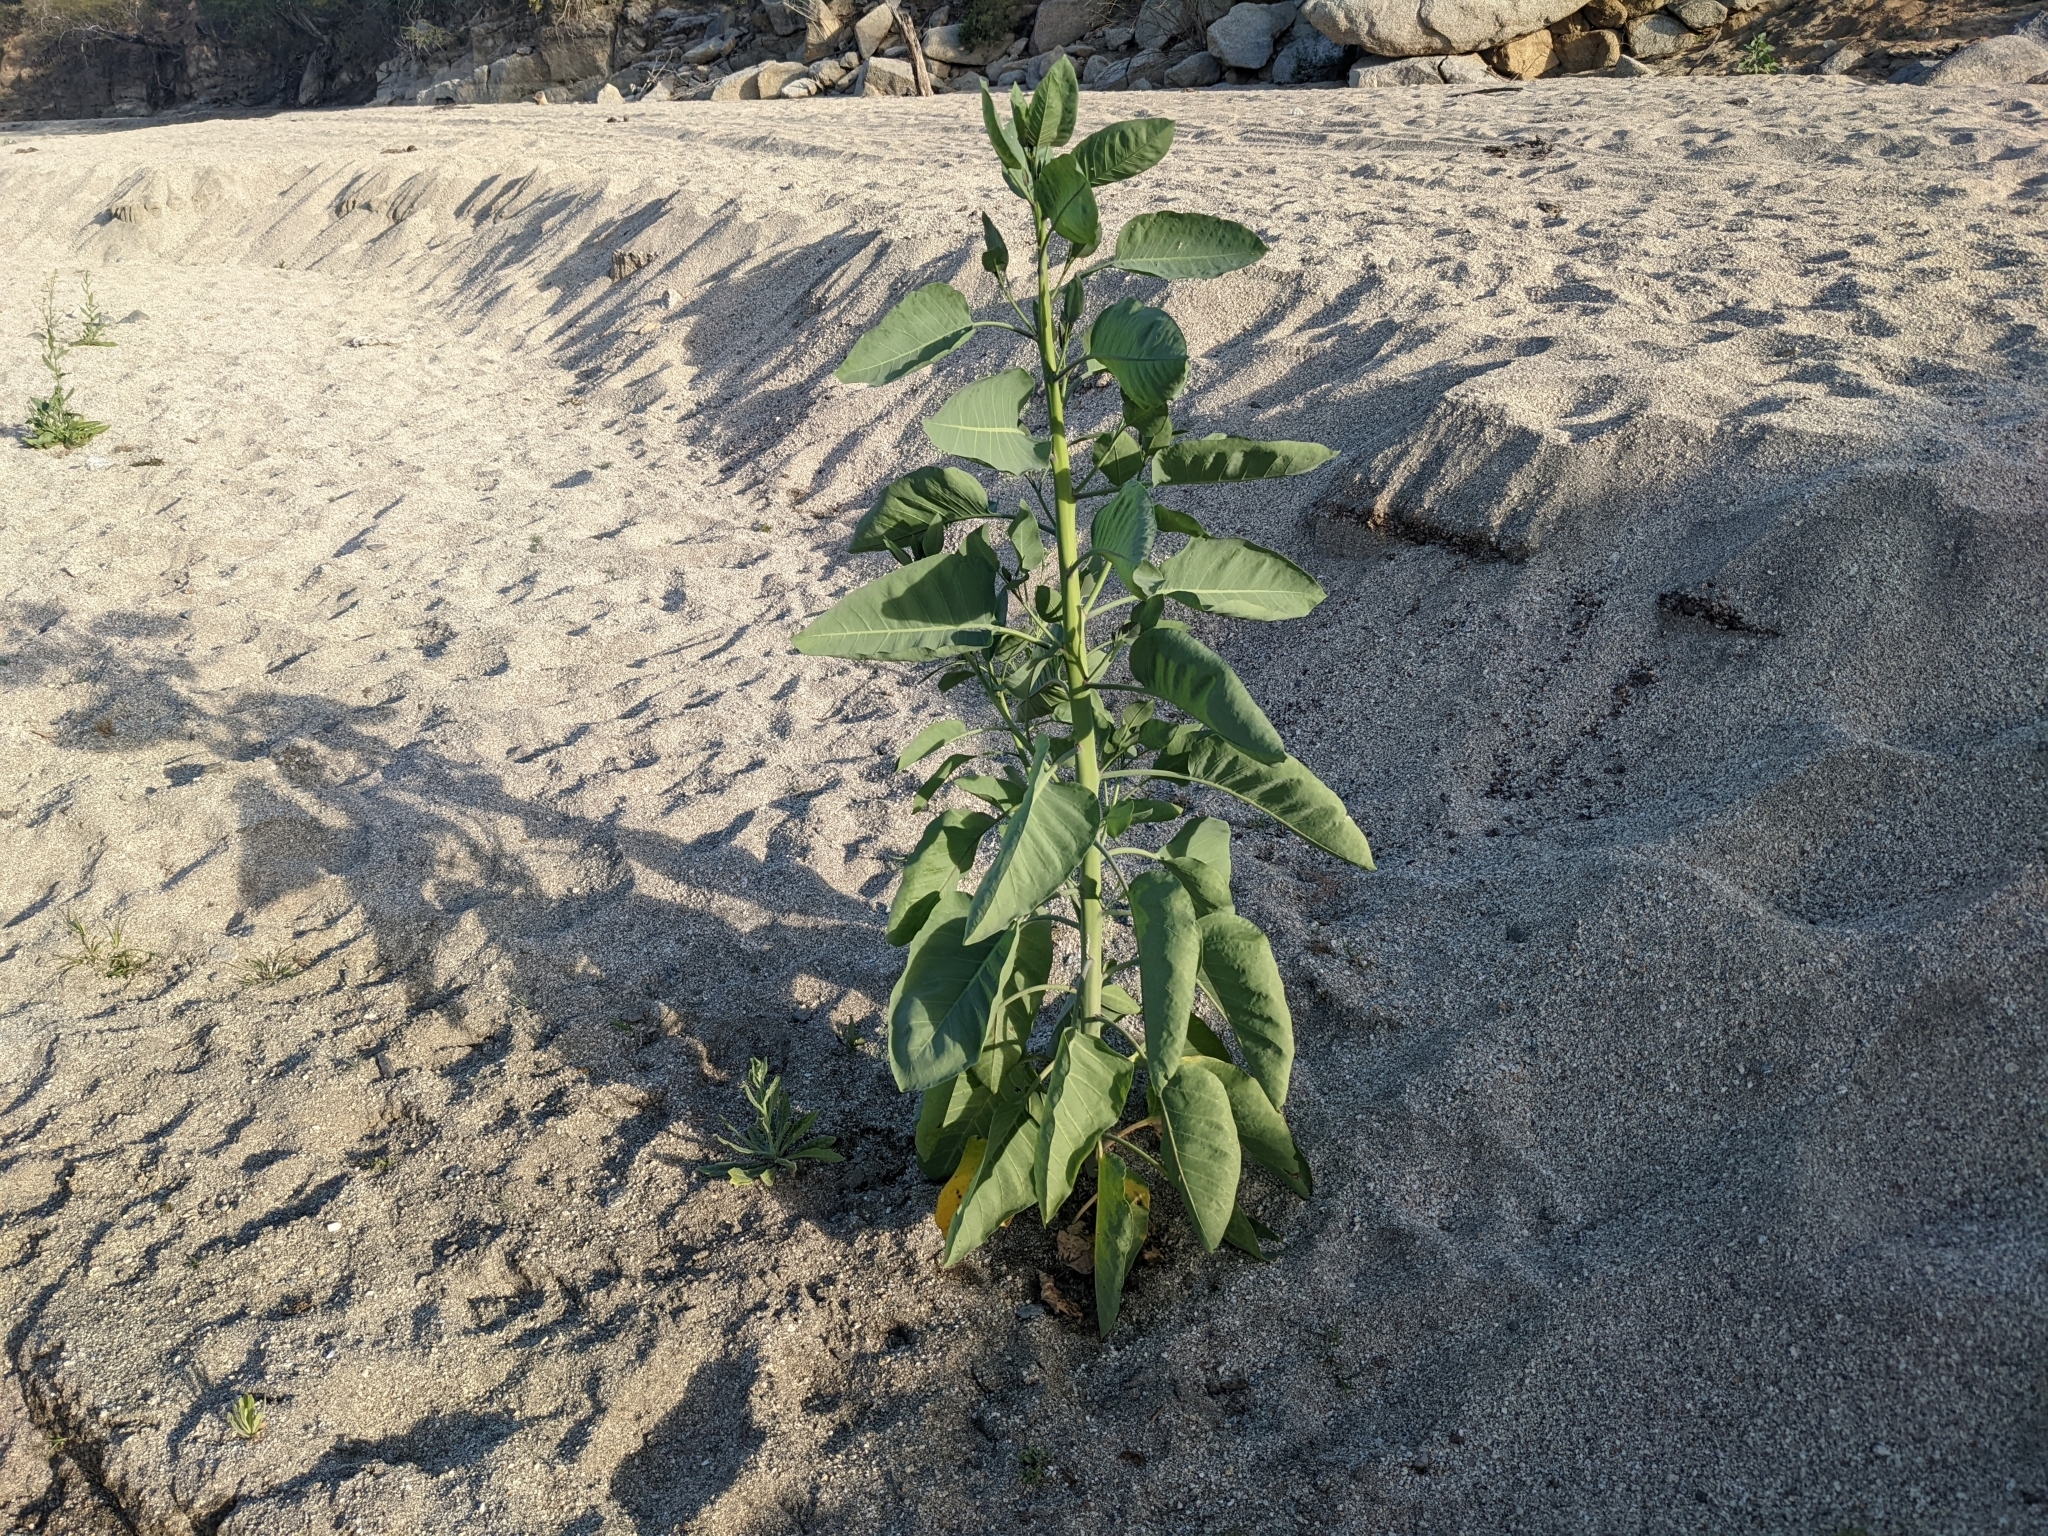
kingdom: Plantae
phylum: Tracheophyta
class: Magnoliopsida
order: Solanales
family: Solanaceae
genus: Nicotiana
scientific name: Nicotiana glauca
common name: Tree tobacco
